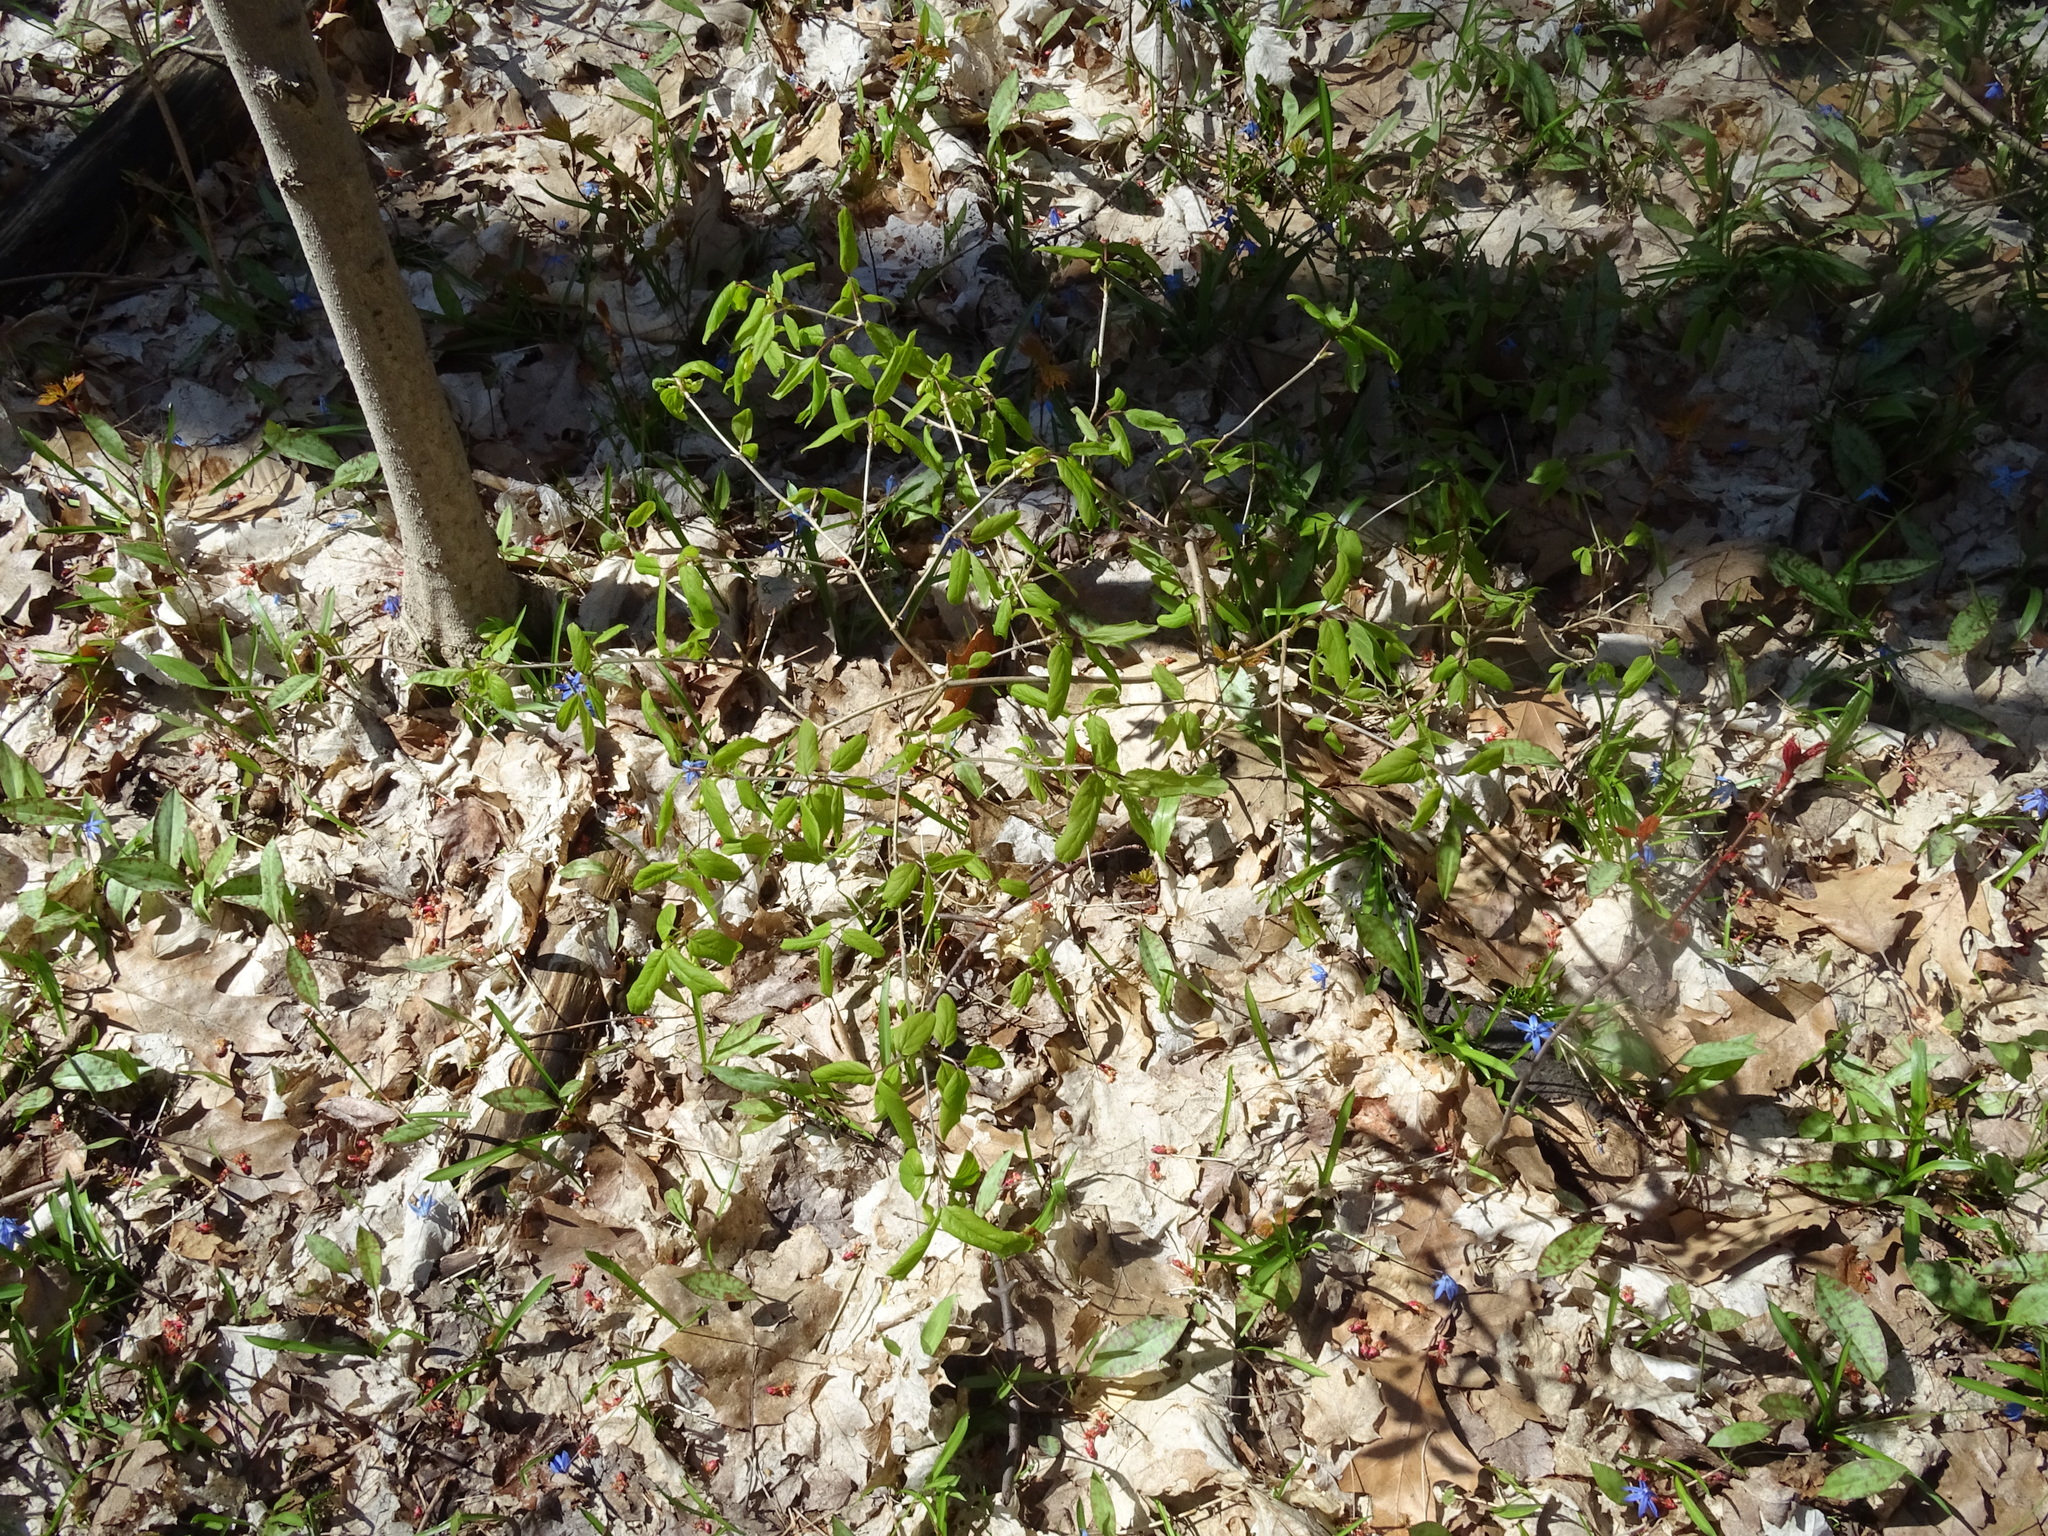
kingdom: Plantae
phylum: Tracheophyta
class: Magnoliopsida
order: Dipsacales
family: Caprifoliaceae
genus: Lonicera
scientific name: Lonicera canadensis
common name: American fly-honeysuckle
